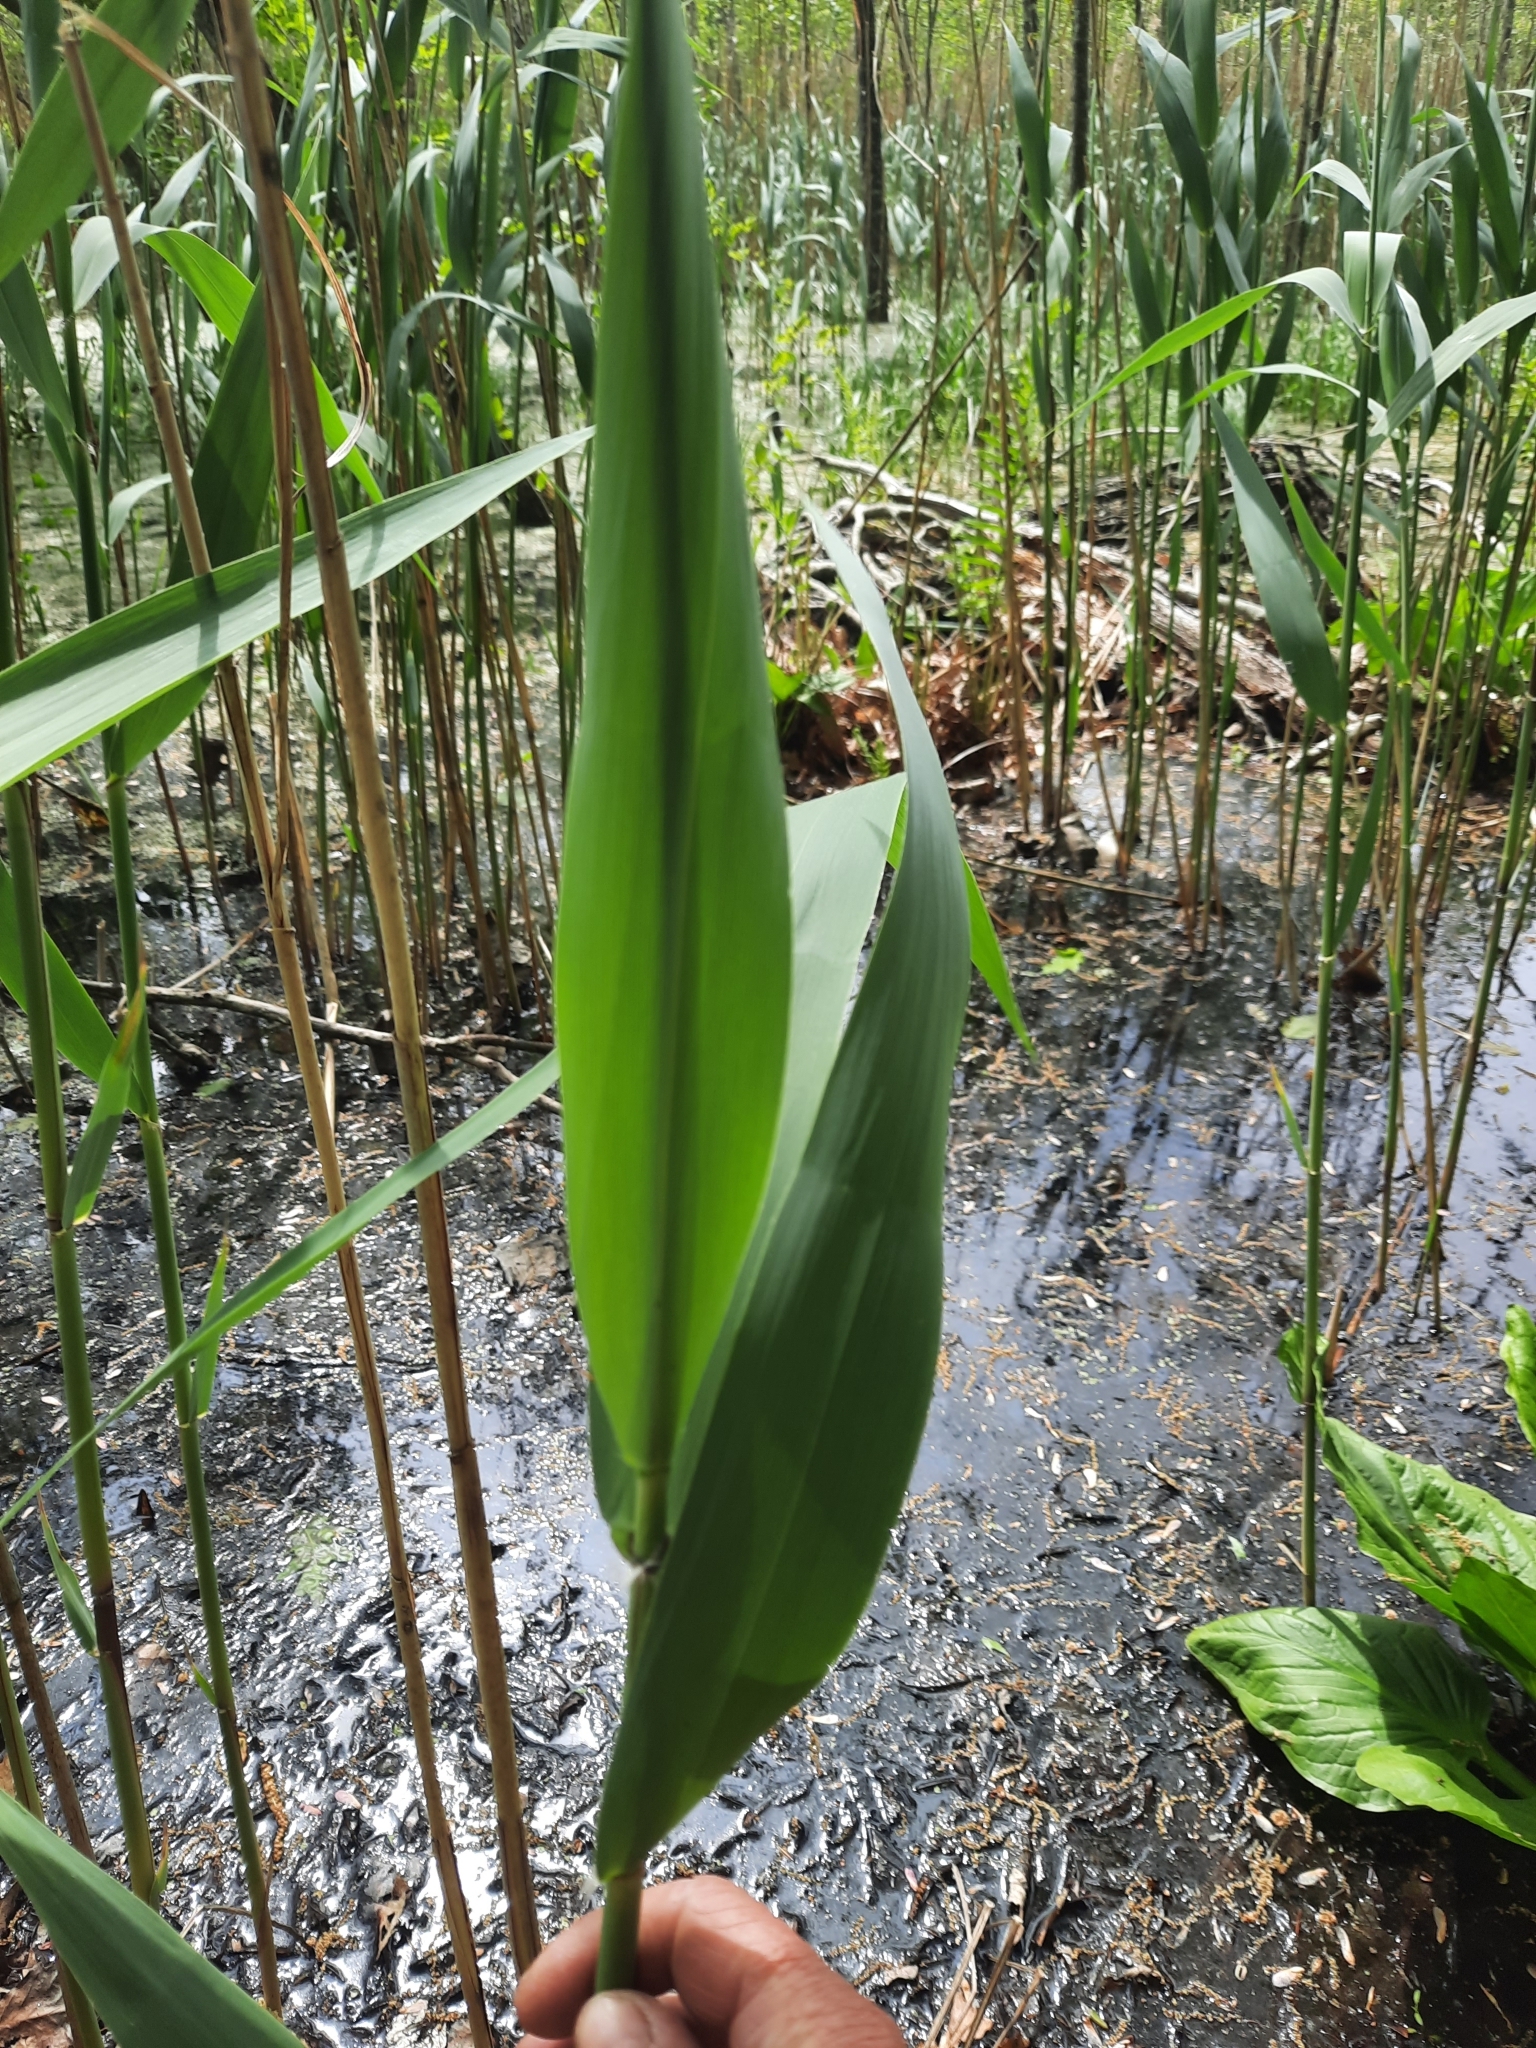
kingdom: Plantae
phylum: Tracheophyta
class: Liliopsida
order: Poales
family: Poaceae
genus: Phragmites
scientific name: Phragmites australis
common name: Common reed
